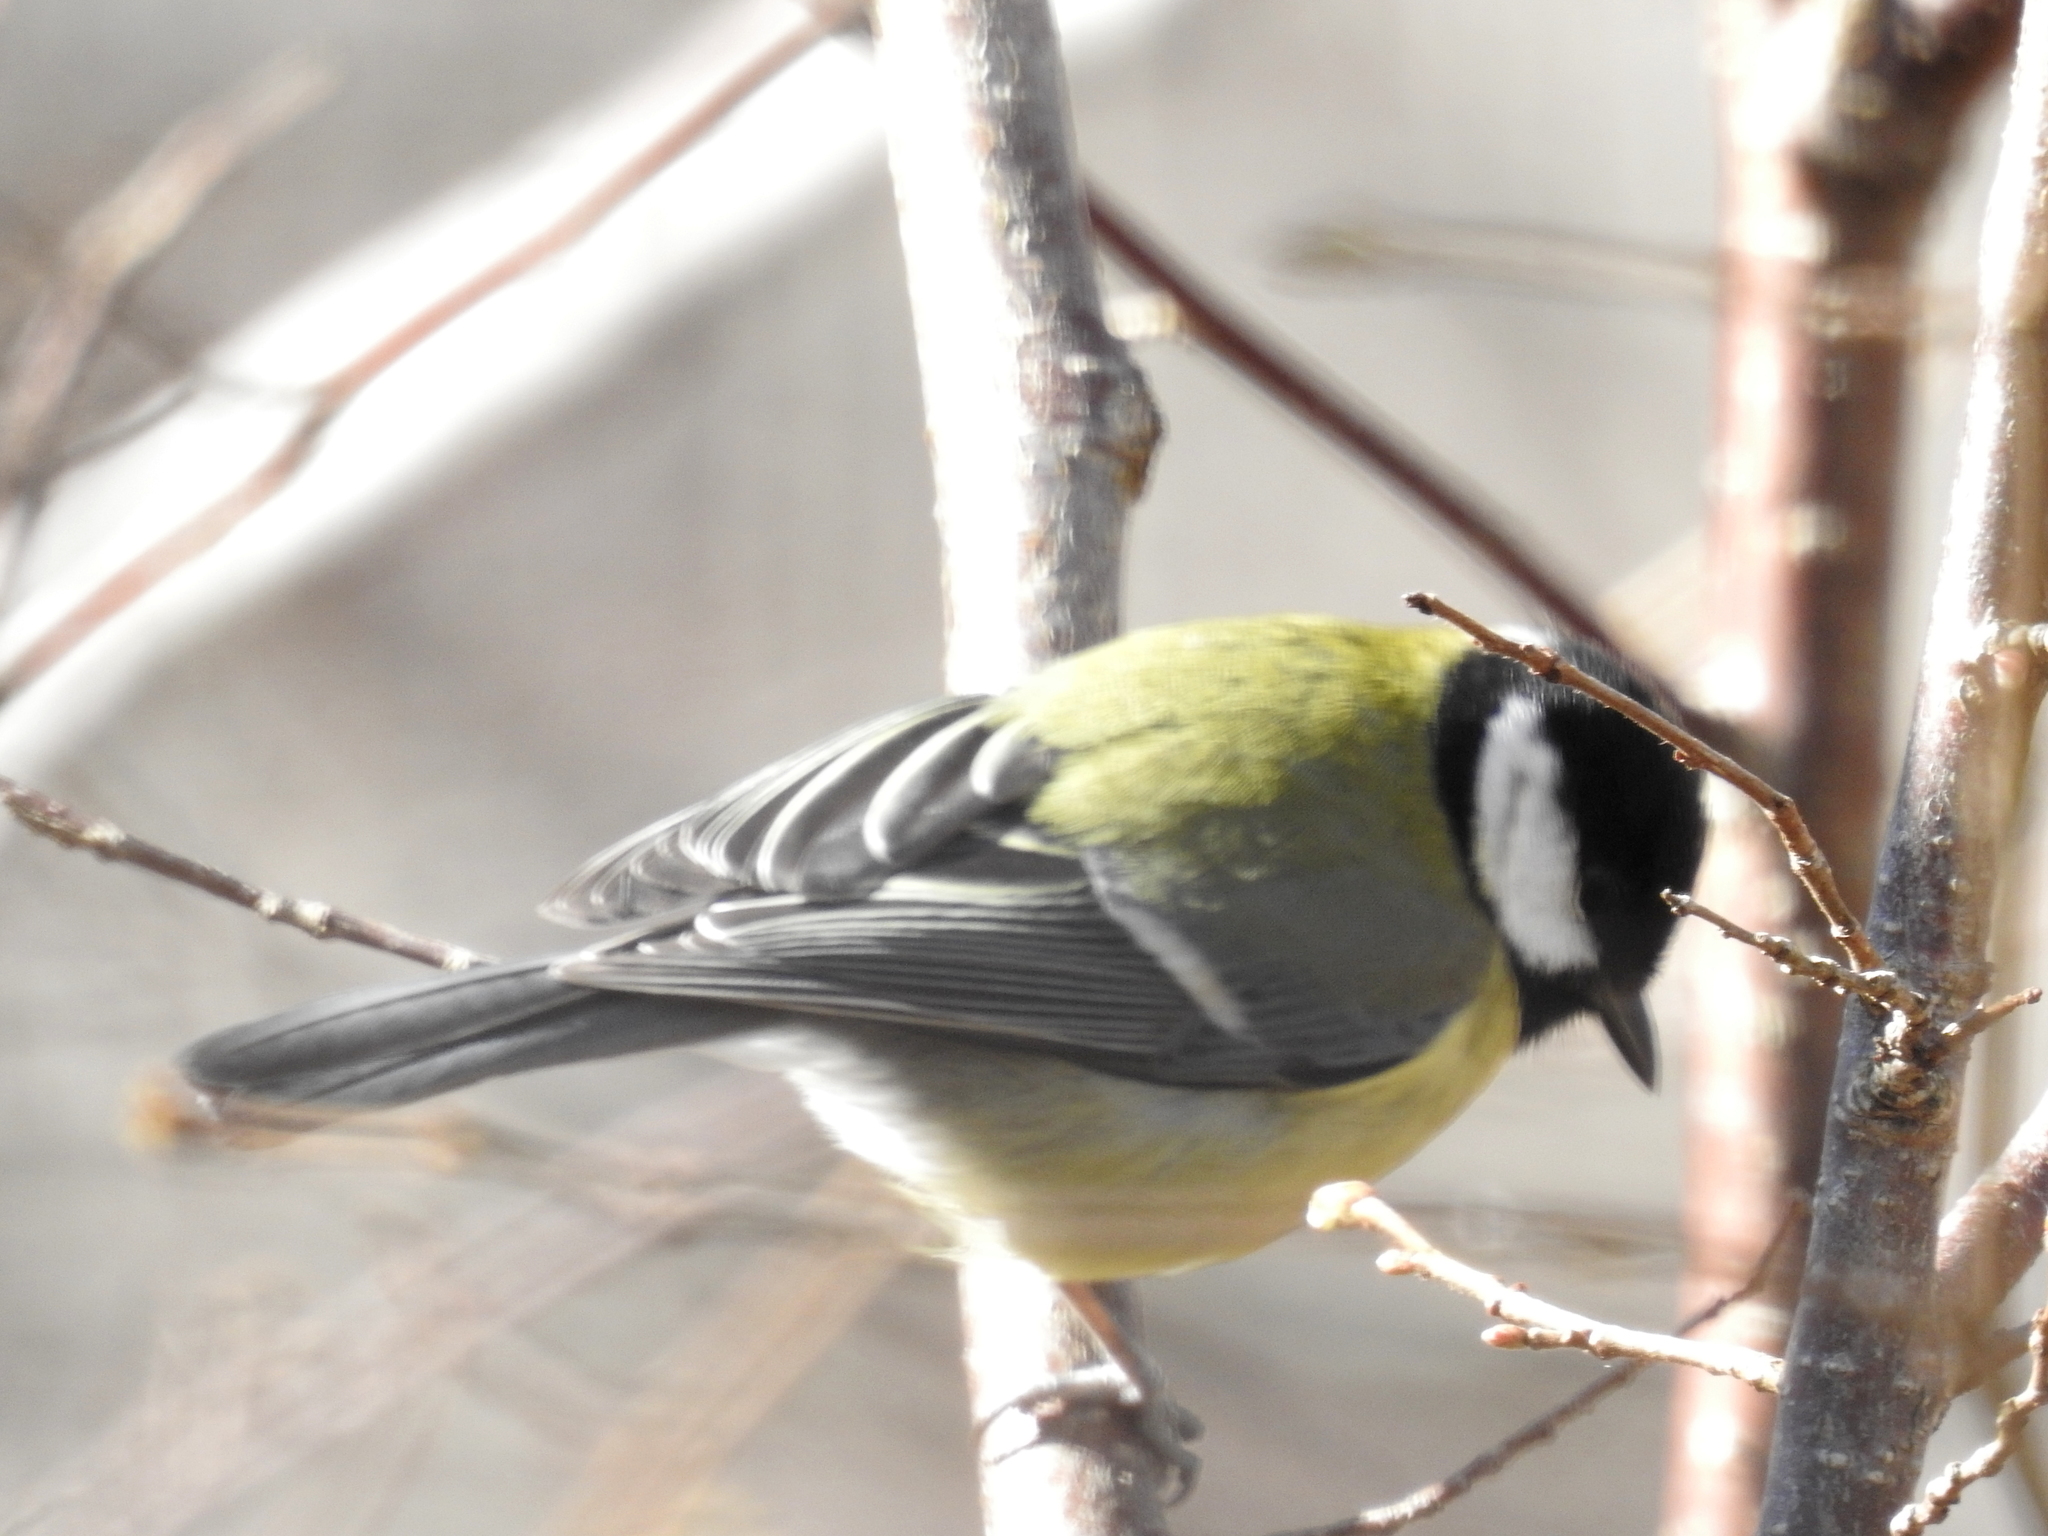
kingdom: Animalia
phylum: Chordata
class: Aves
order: Passeriformes
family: Paridae
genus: Parus
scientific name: Parus major
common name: Great tit
